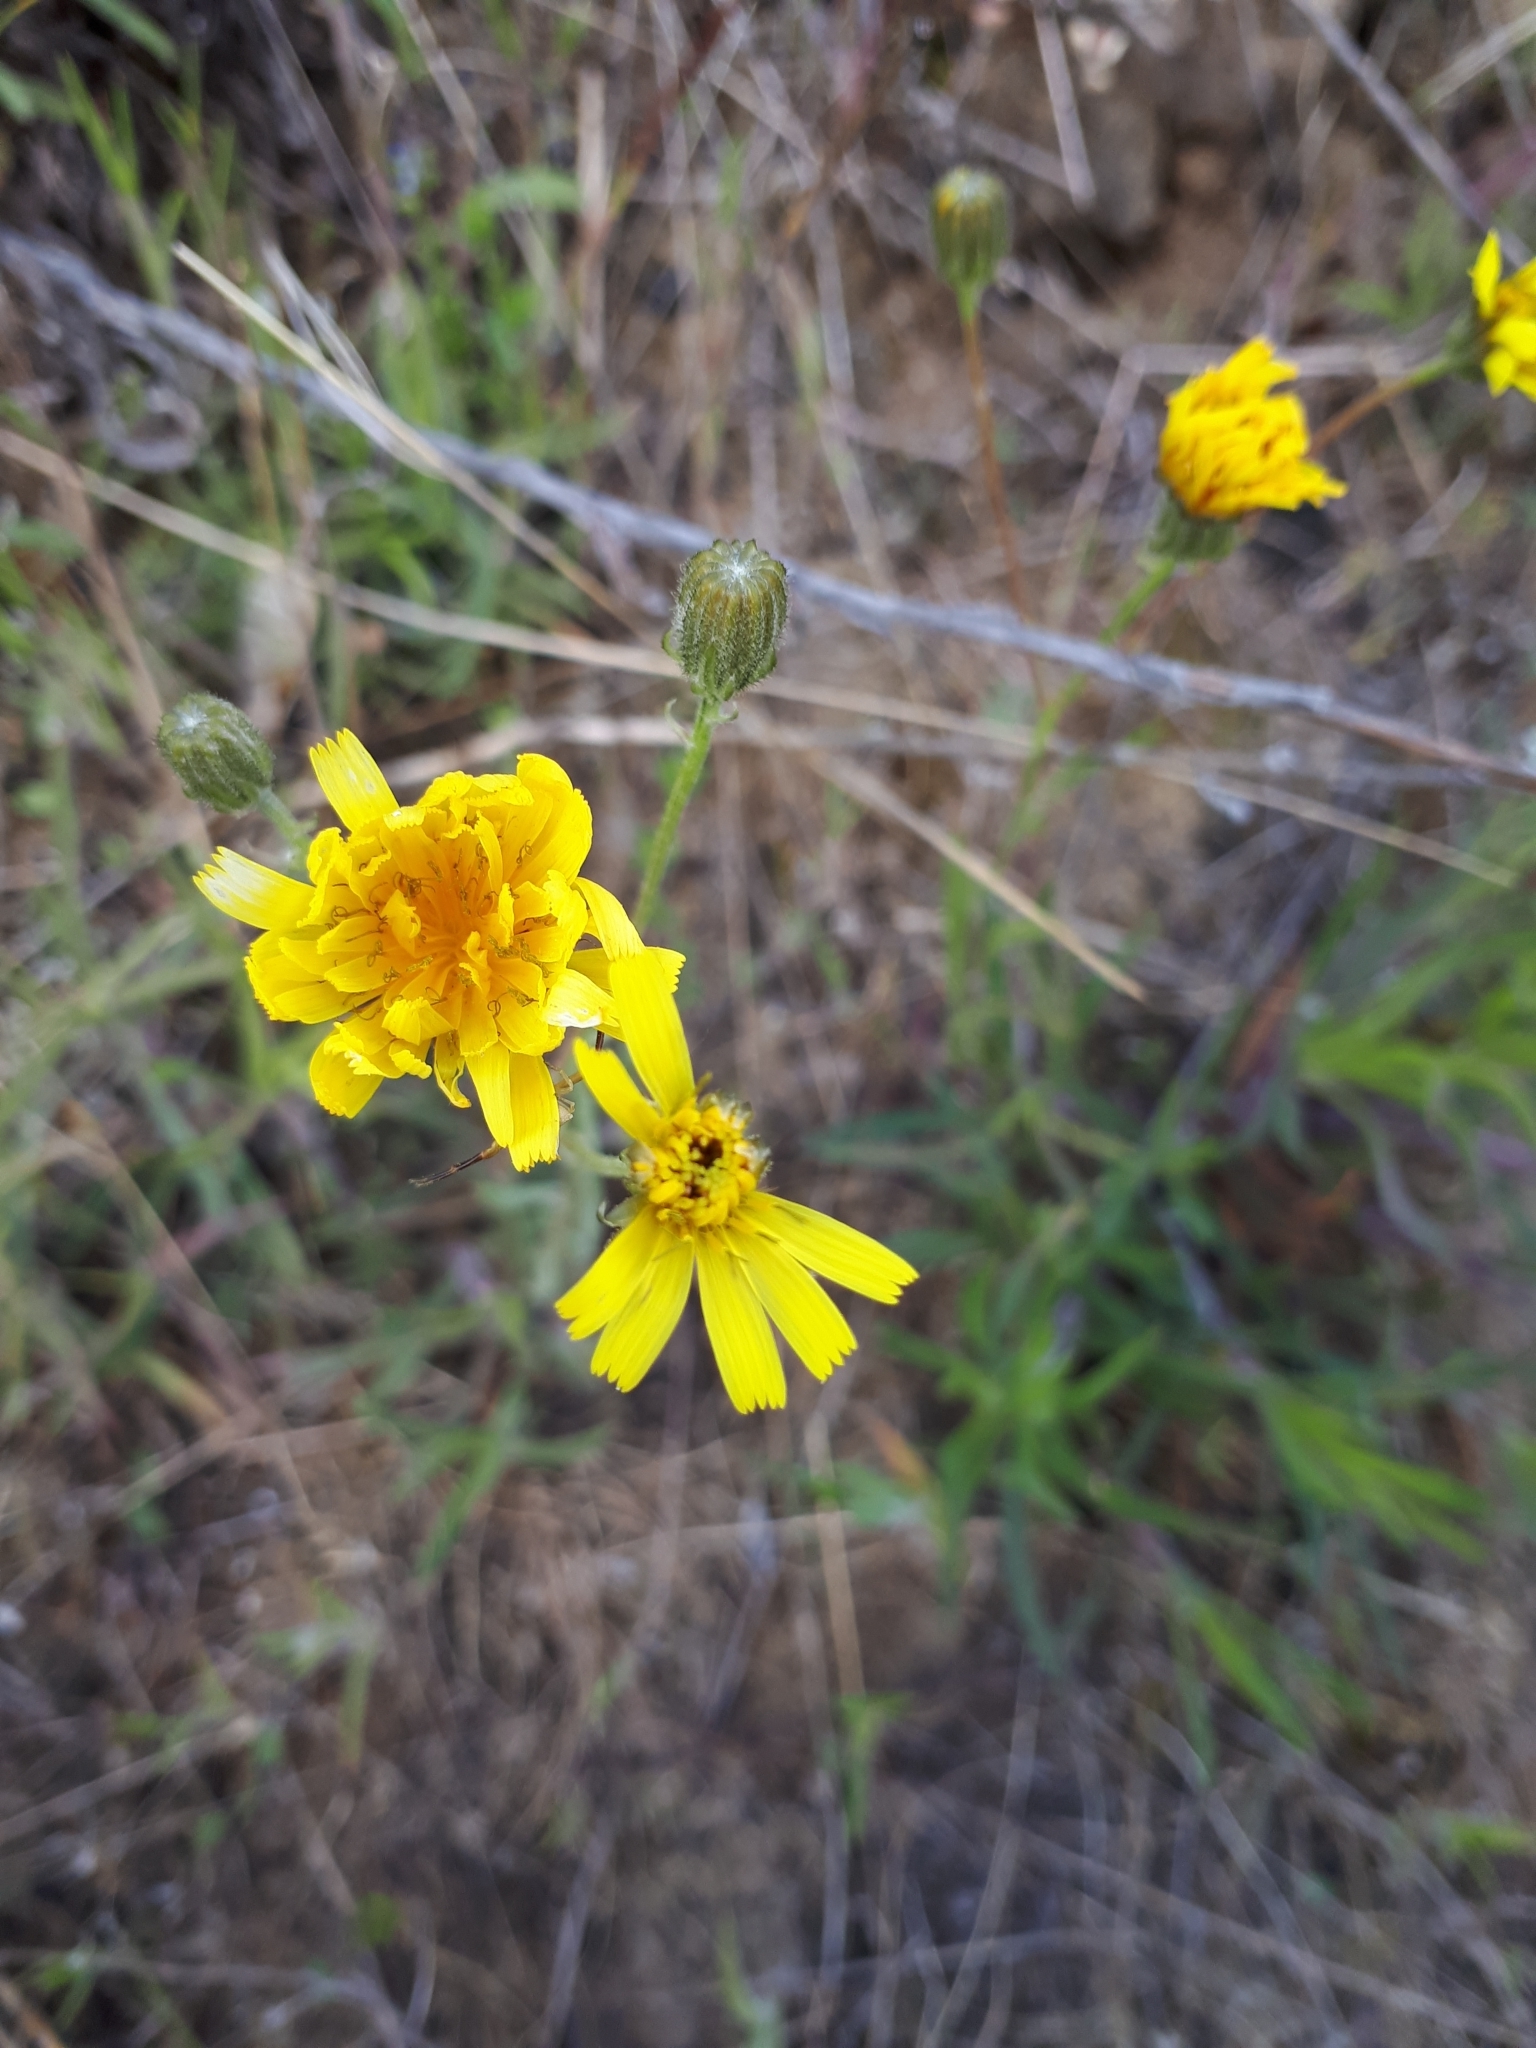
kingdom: Plantae
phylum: Tracheophyta
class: Magnoliopsida
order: Asterales
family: Asteraceae
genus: Crepis
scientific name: Crepis tectorum
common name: Narrow-leaved hawk's-beard
